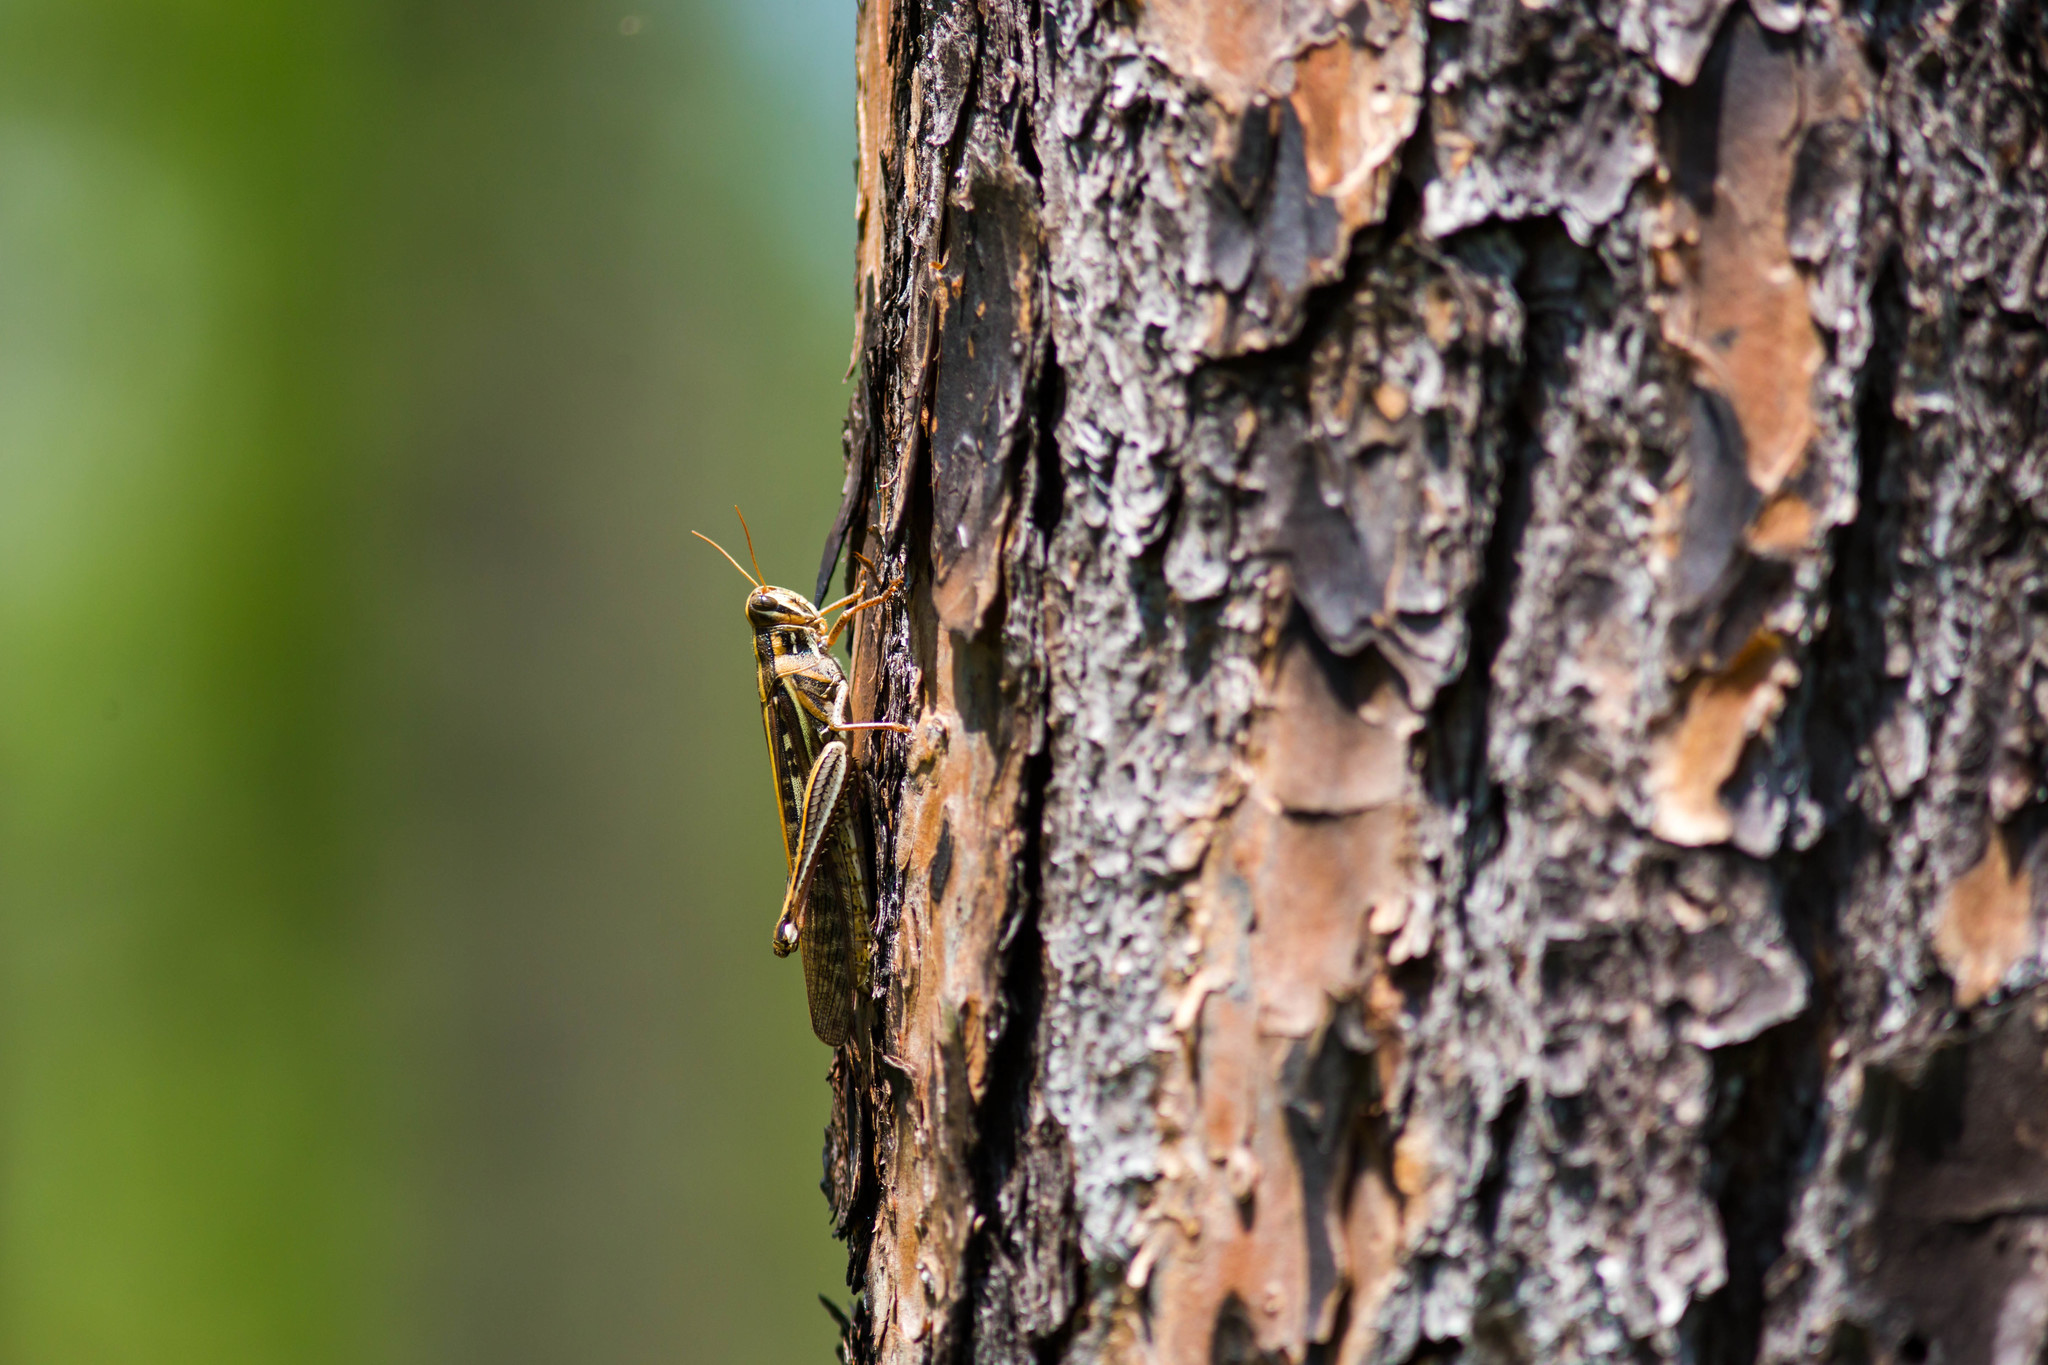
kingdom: Animalia
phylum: Arthropoda
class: Insecta
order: Orthoptera
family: Acrididae
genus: Schistocerca
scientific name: Schistocerca americana
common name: American bird locust
